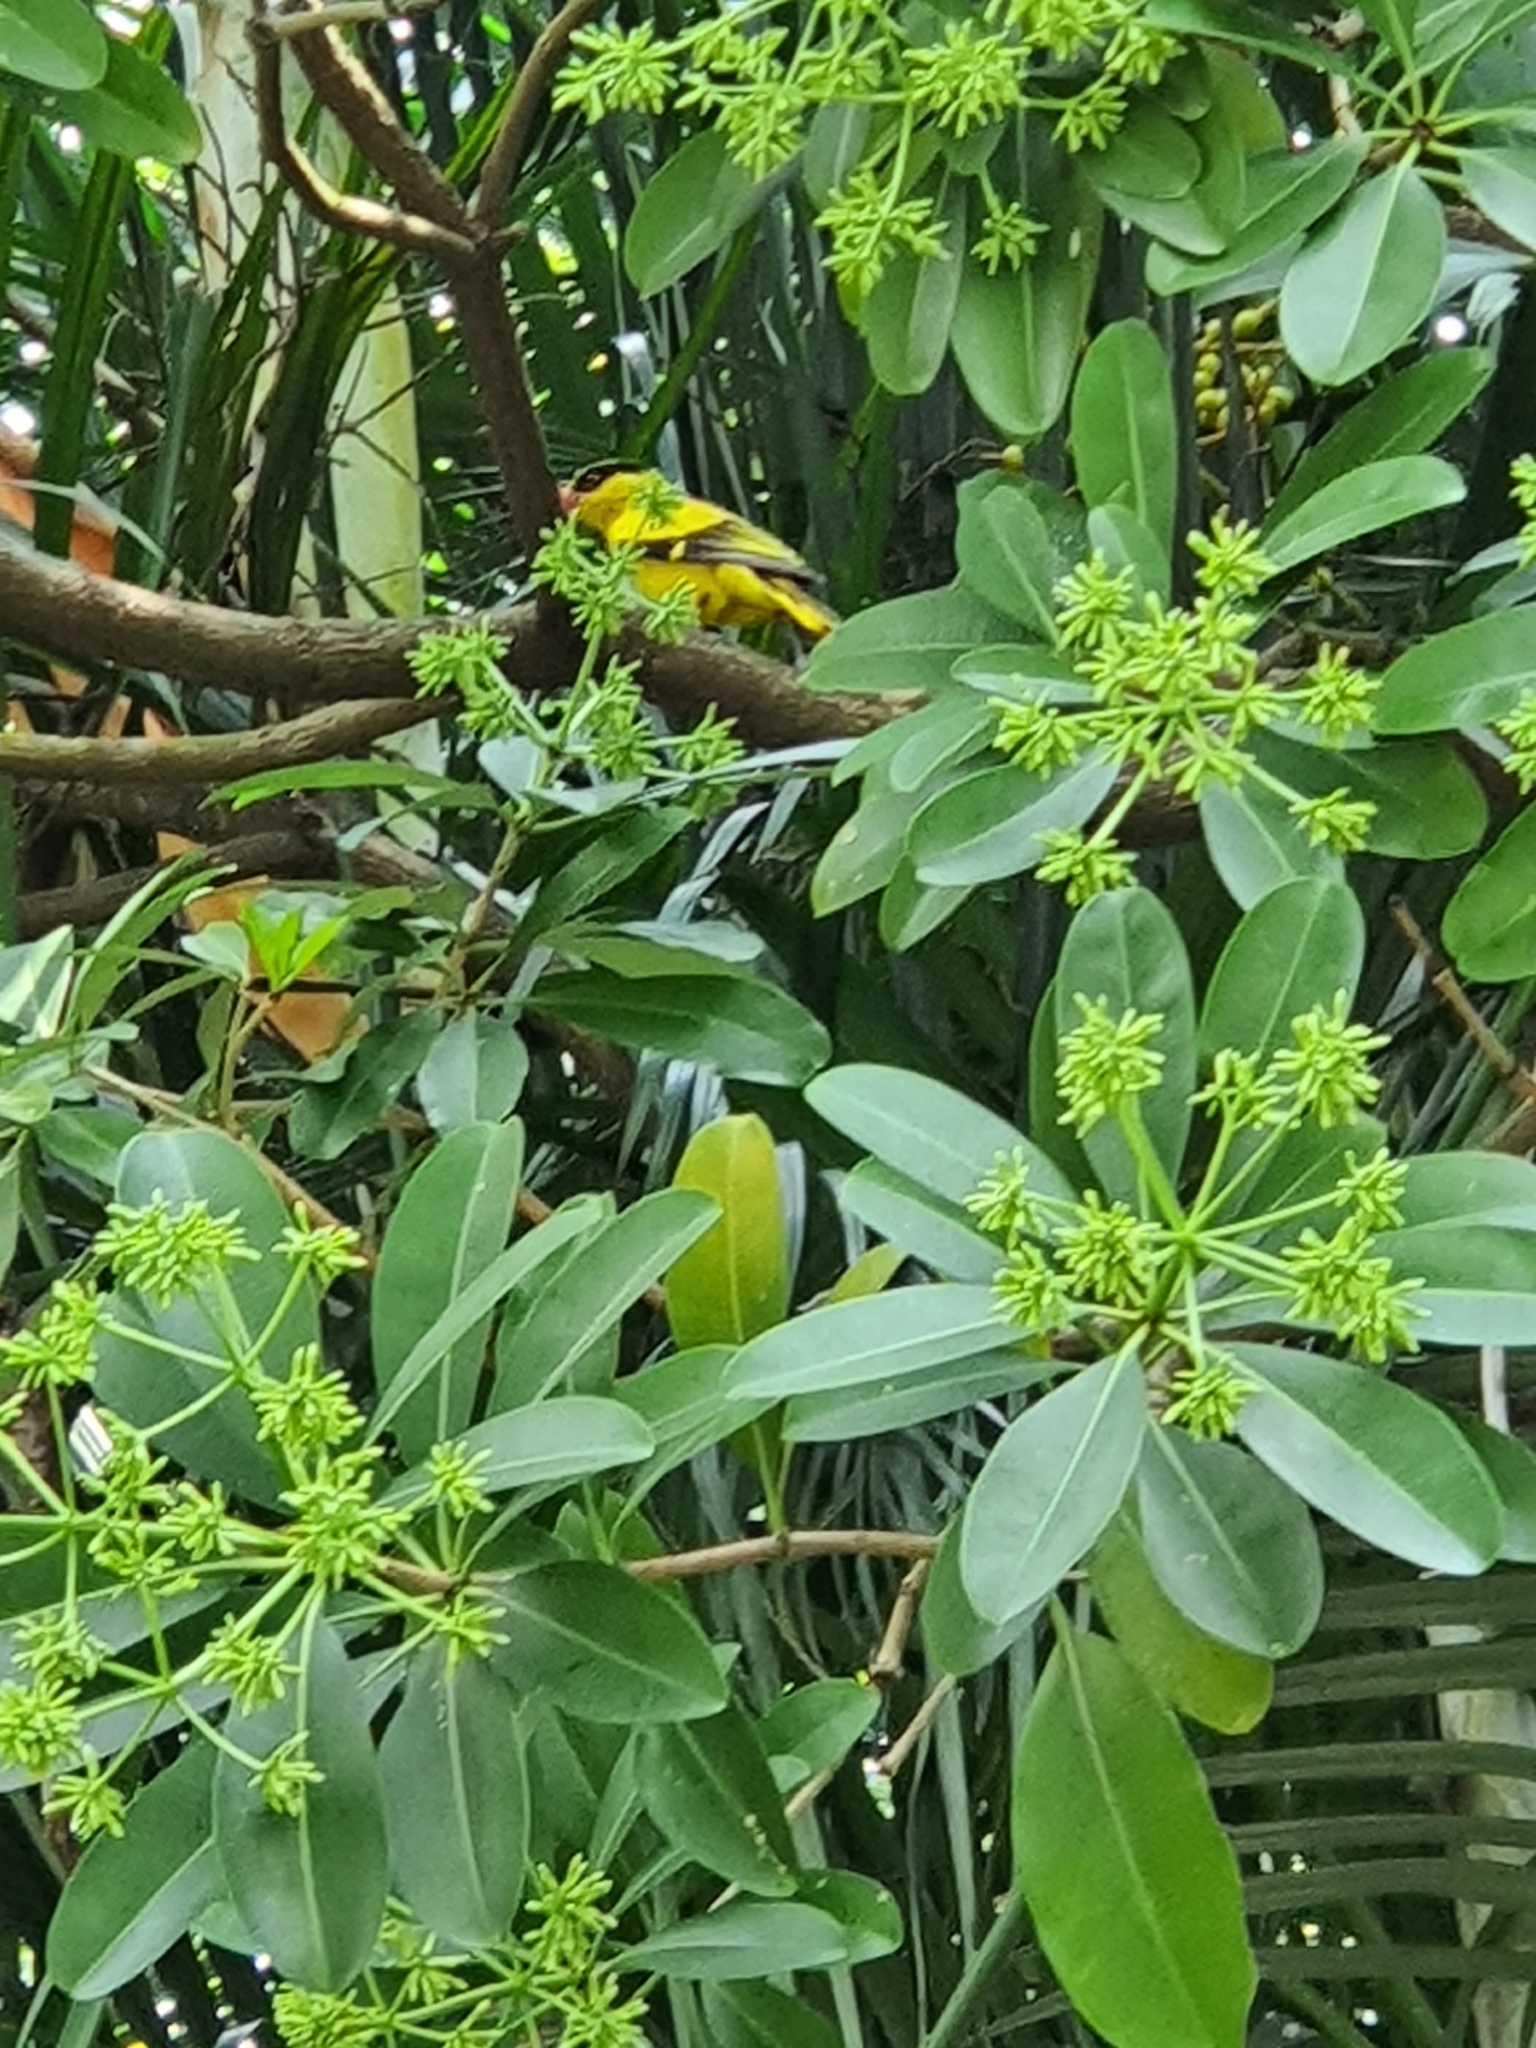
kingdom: Animalia
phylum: Chordata
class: Aves
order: Passeriformes
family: Oriolidae
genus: Oriolus
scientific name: Oriolus chinensis
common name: Black-naped oriole
